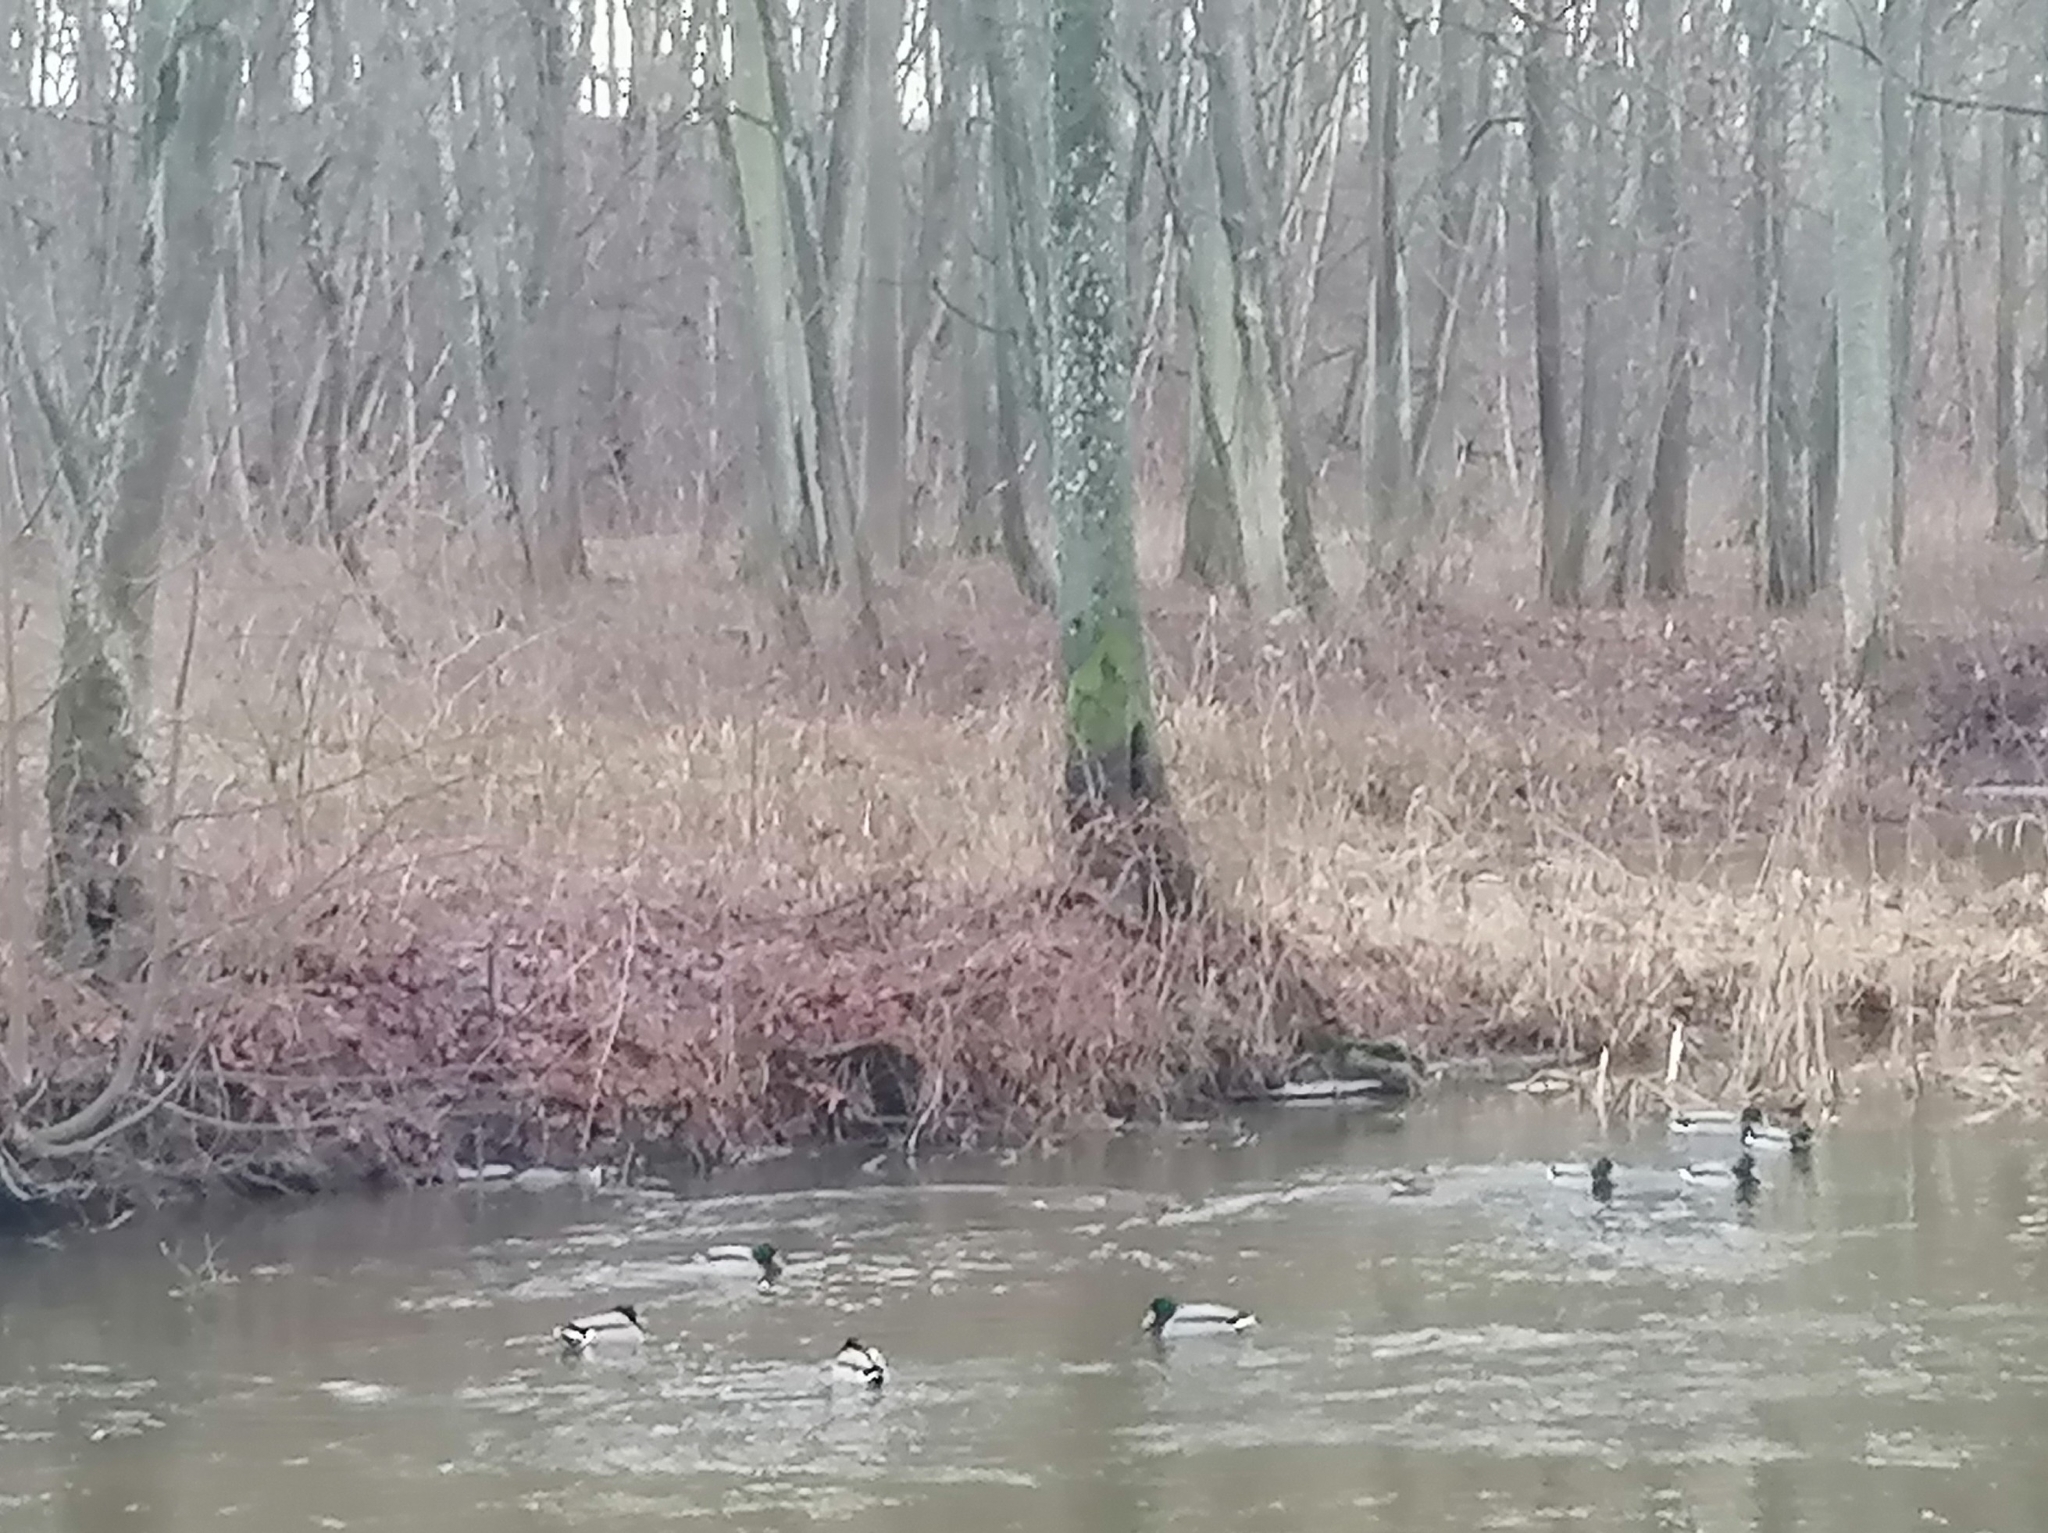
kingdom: Animalia
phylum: Chordata
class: Aves
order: Anseriformes
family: Anatidae
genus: Anas
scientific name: Anas platyrhynchos
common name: Mallard
